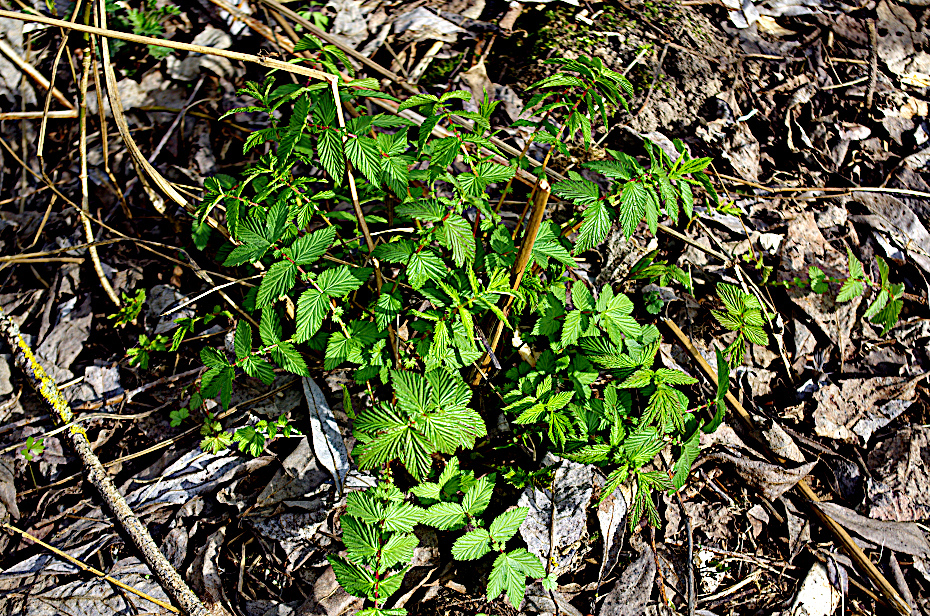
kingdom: Plantae
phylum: Tracheophyta
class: Magnoliopsida
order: Rosales
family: Rosaceae
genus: Filipendula
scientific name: Filipendula ulmaria
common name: Meadowsweet
